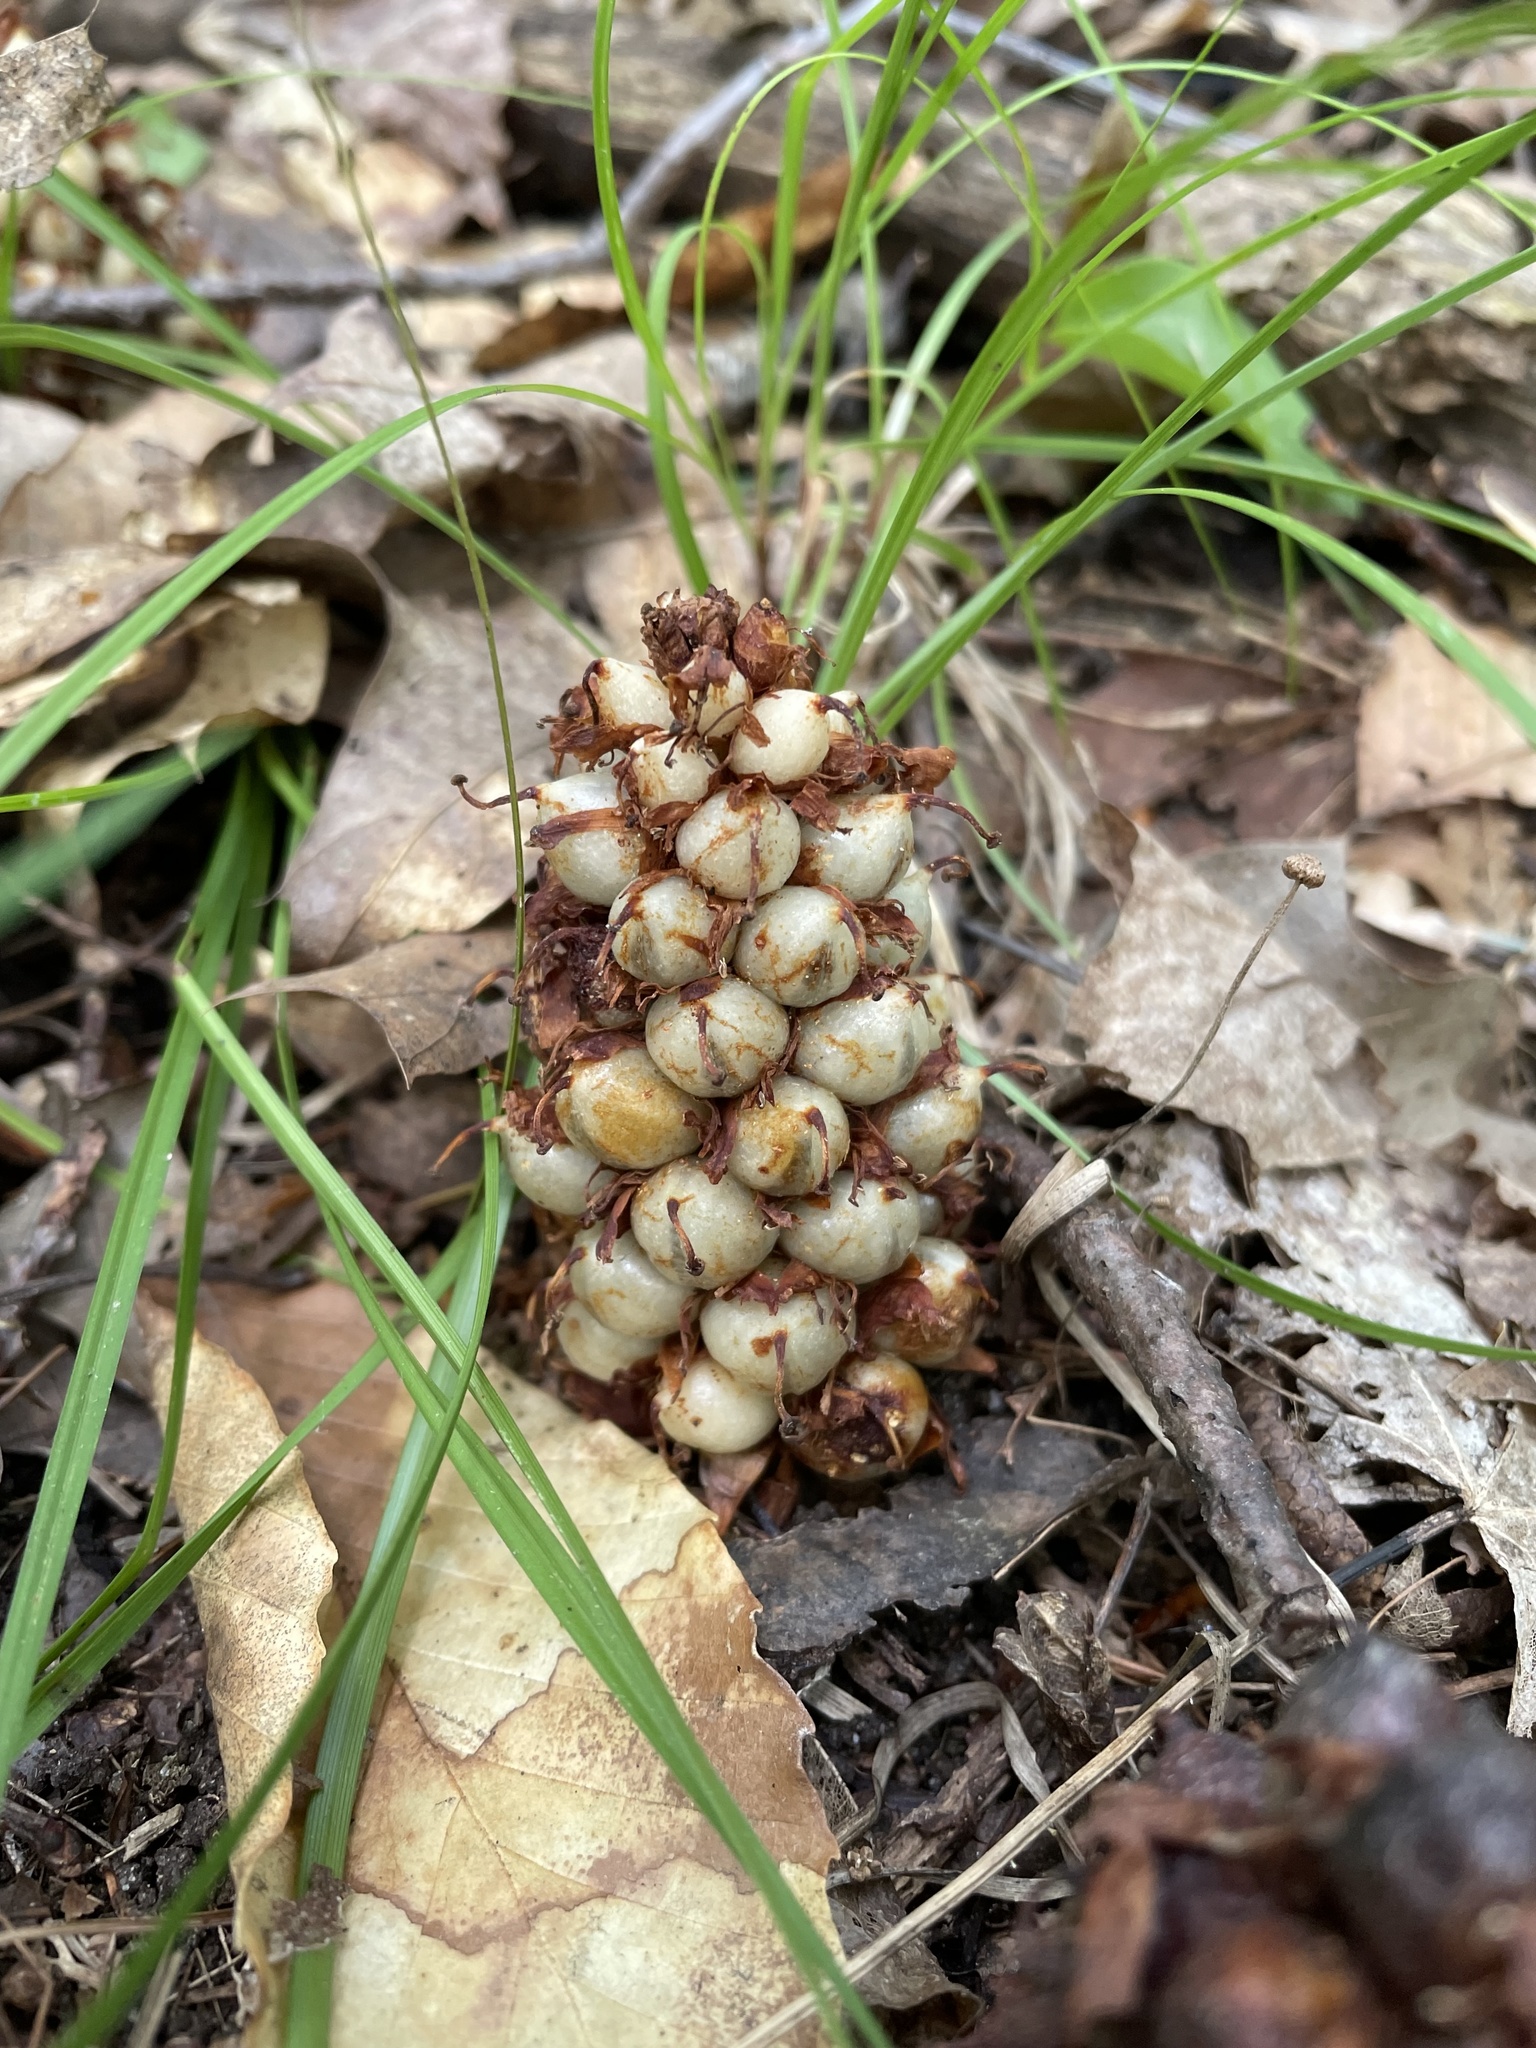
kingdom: Plantae
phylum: Tracheophyta
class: Magnoliopsida
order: Lamiales
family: Orobanchaceae
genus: Conopholis
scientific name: Conopholis americana
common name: American cancer-root
